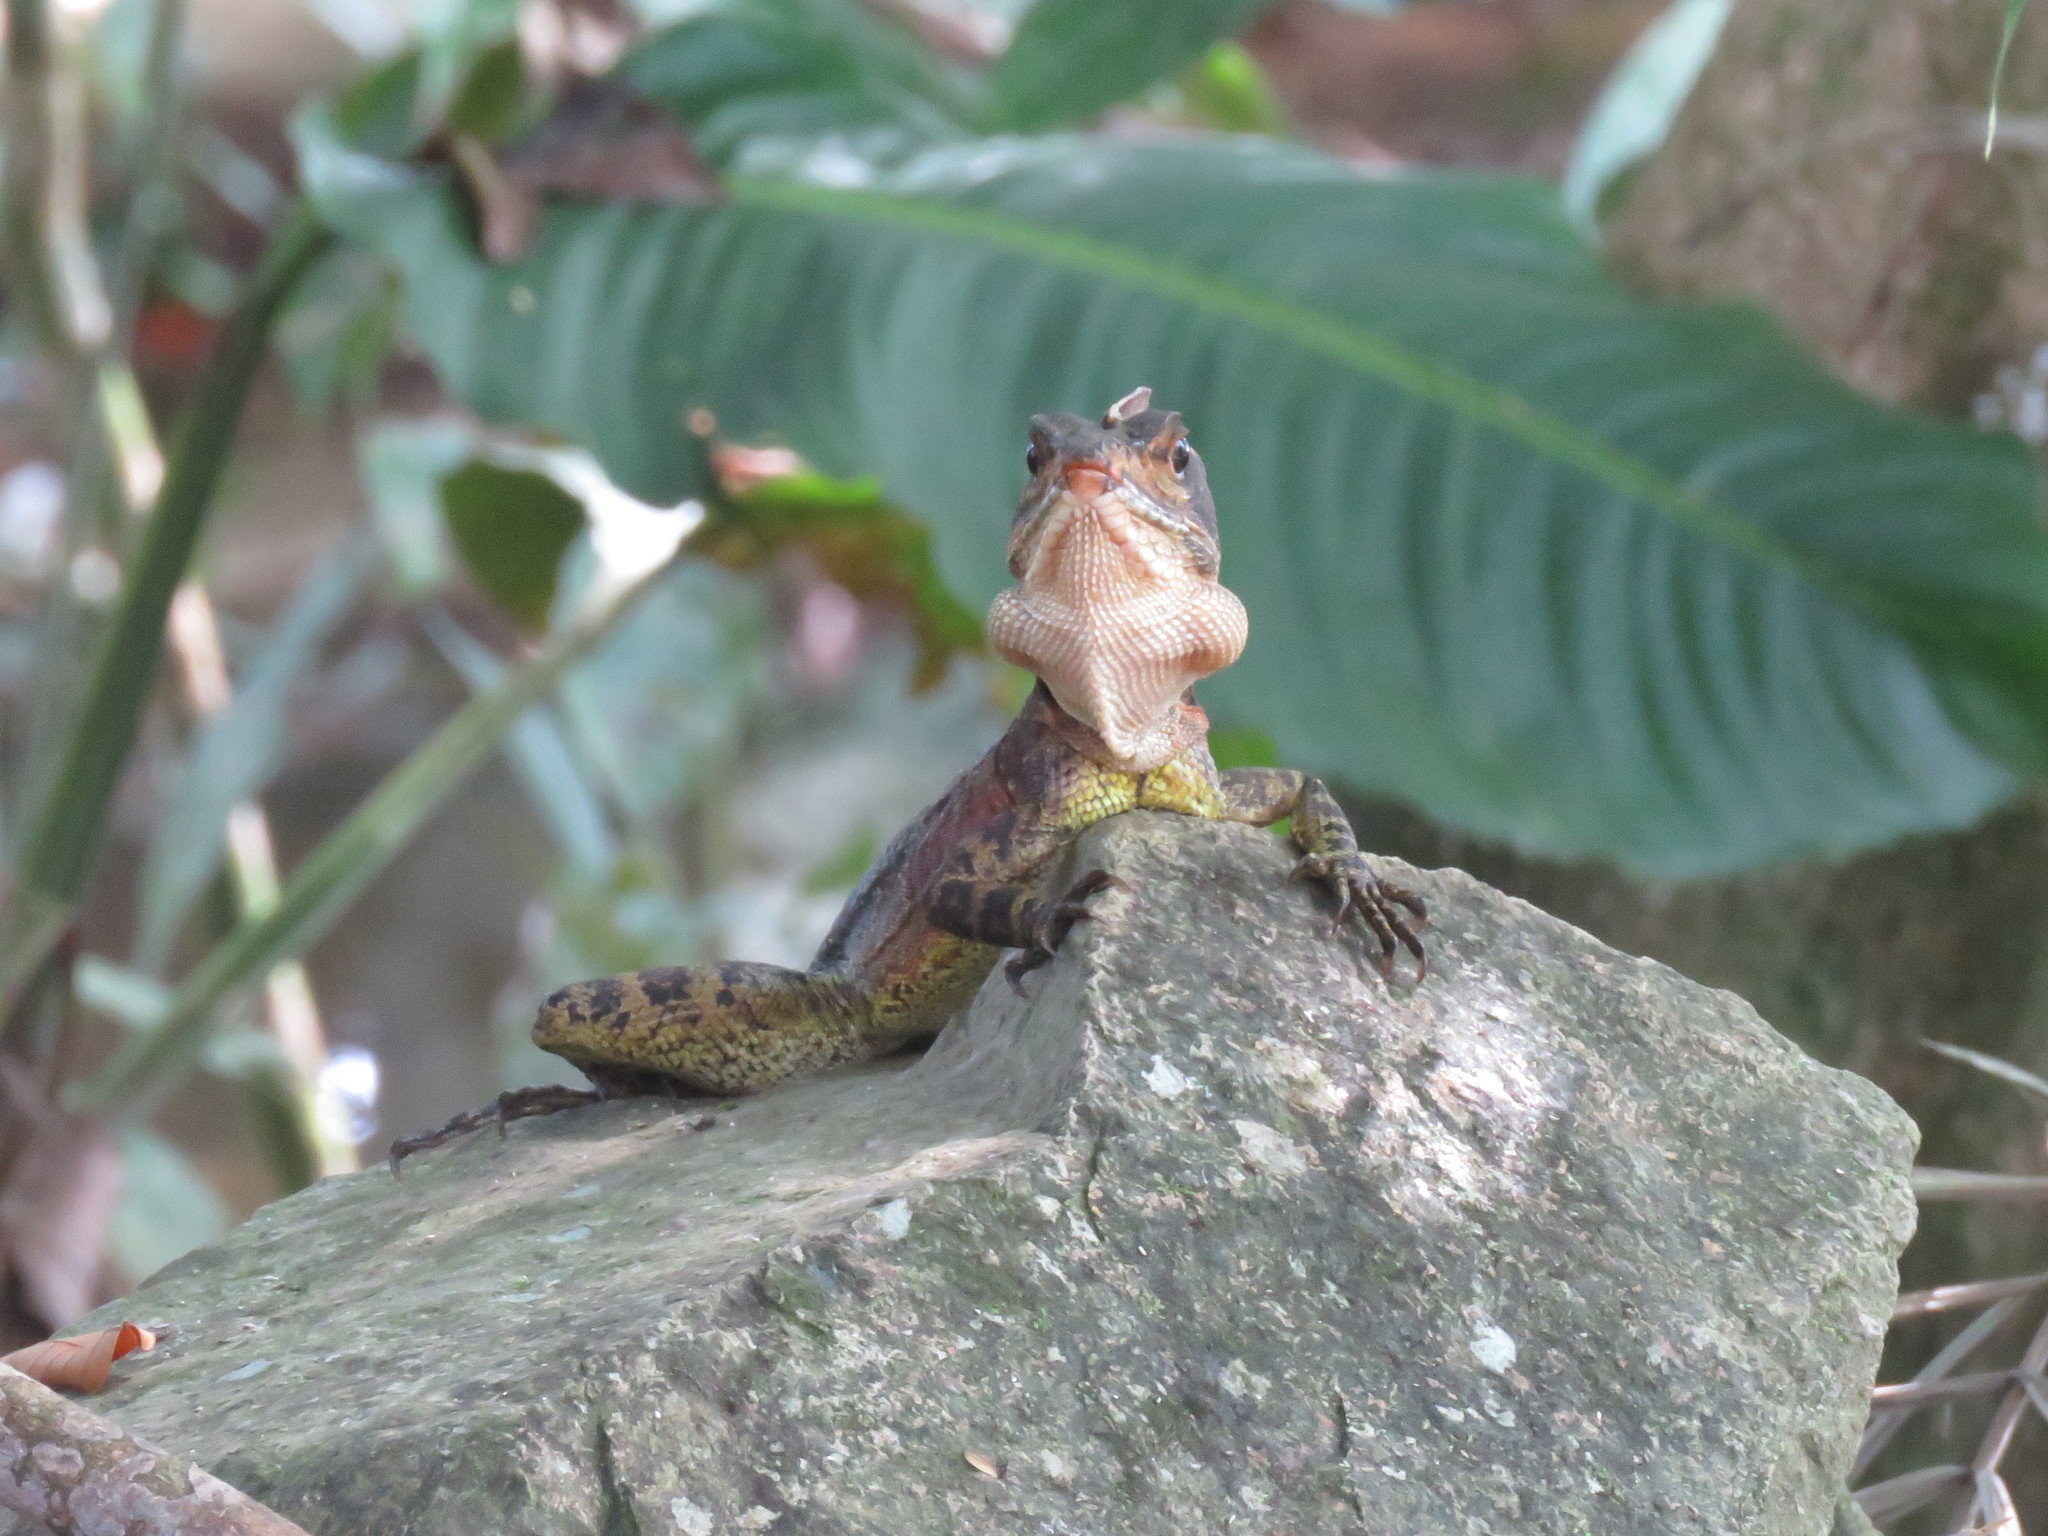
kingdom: Animalia
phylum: Chordata
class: Squamata
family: Corytophanidae
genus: Basiliscus
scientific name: Basiliscus galeritus
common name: Western basilisk
